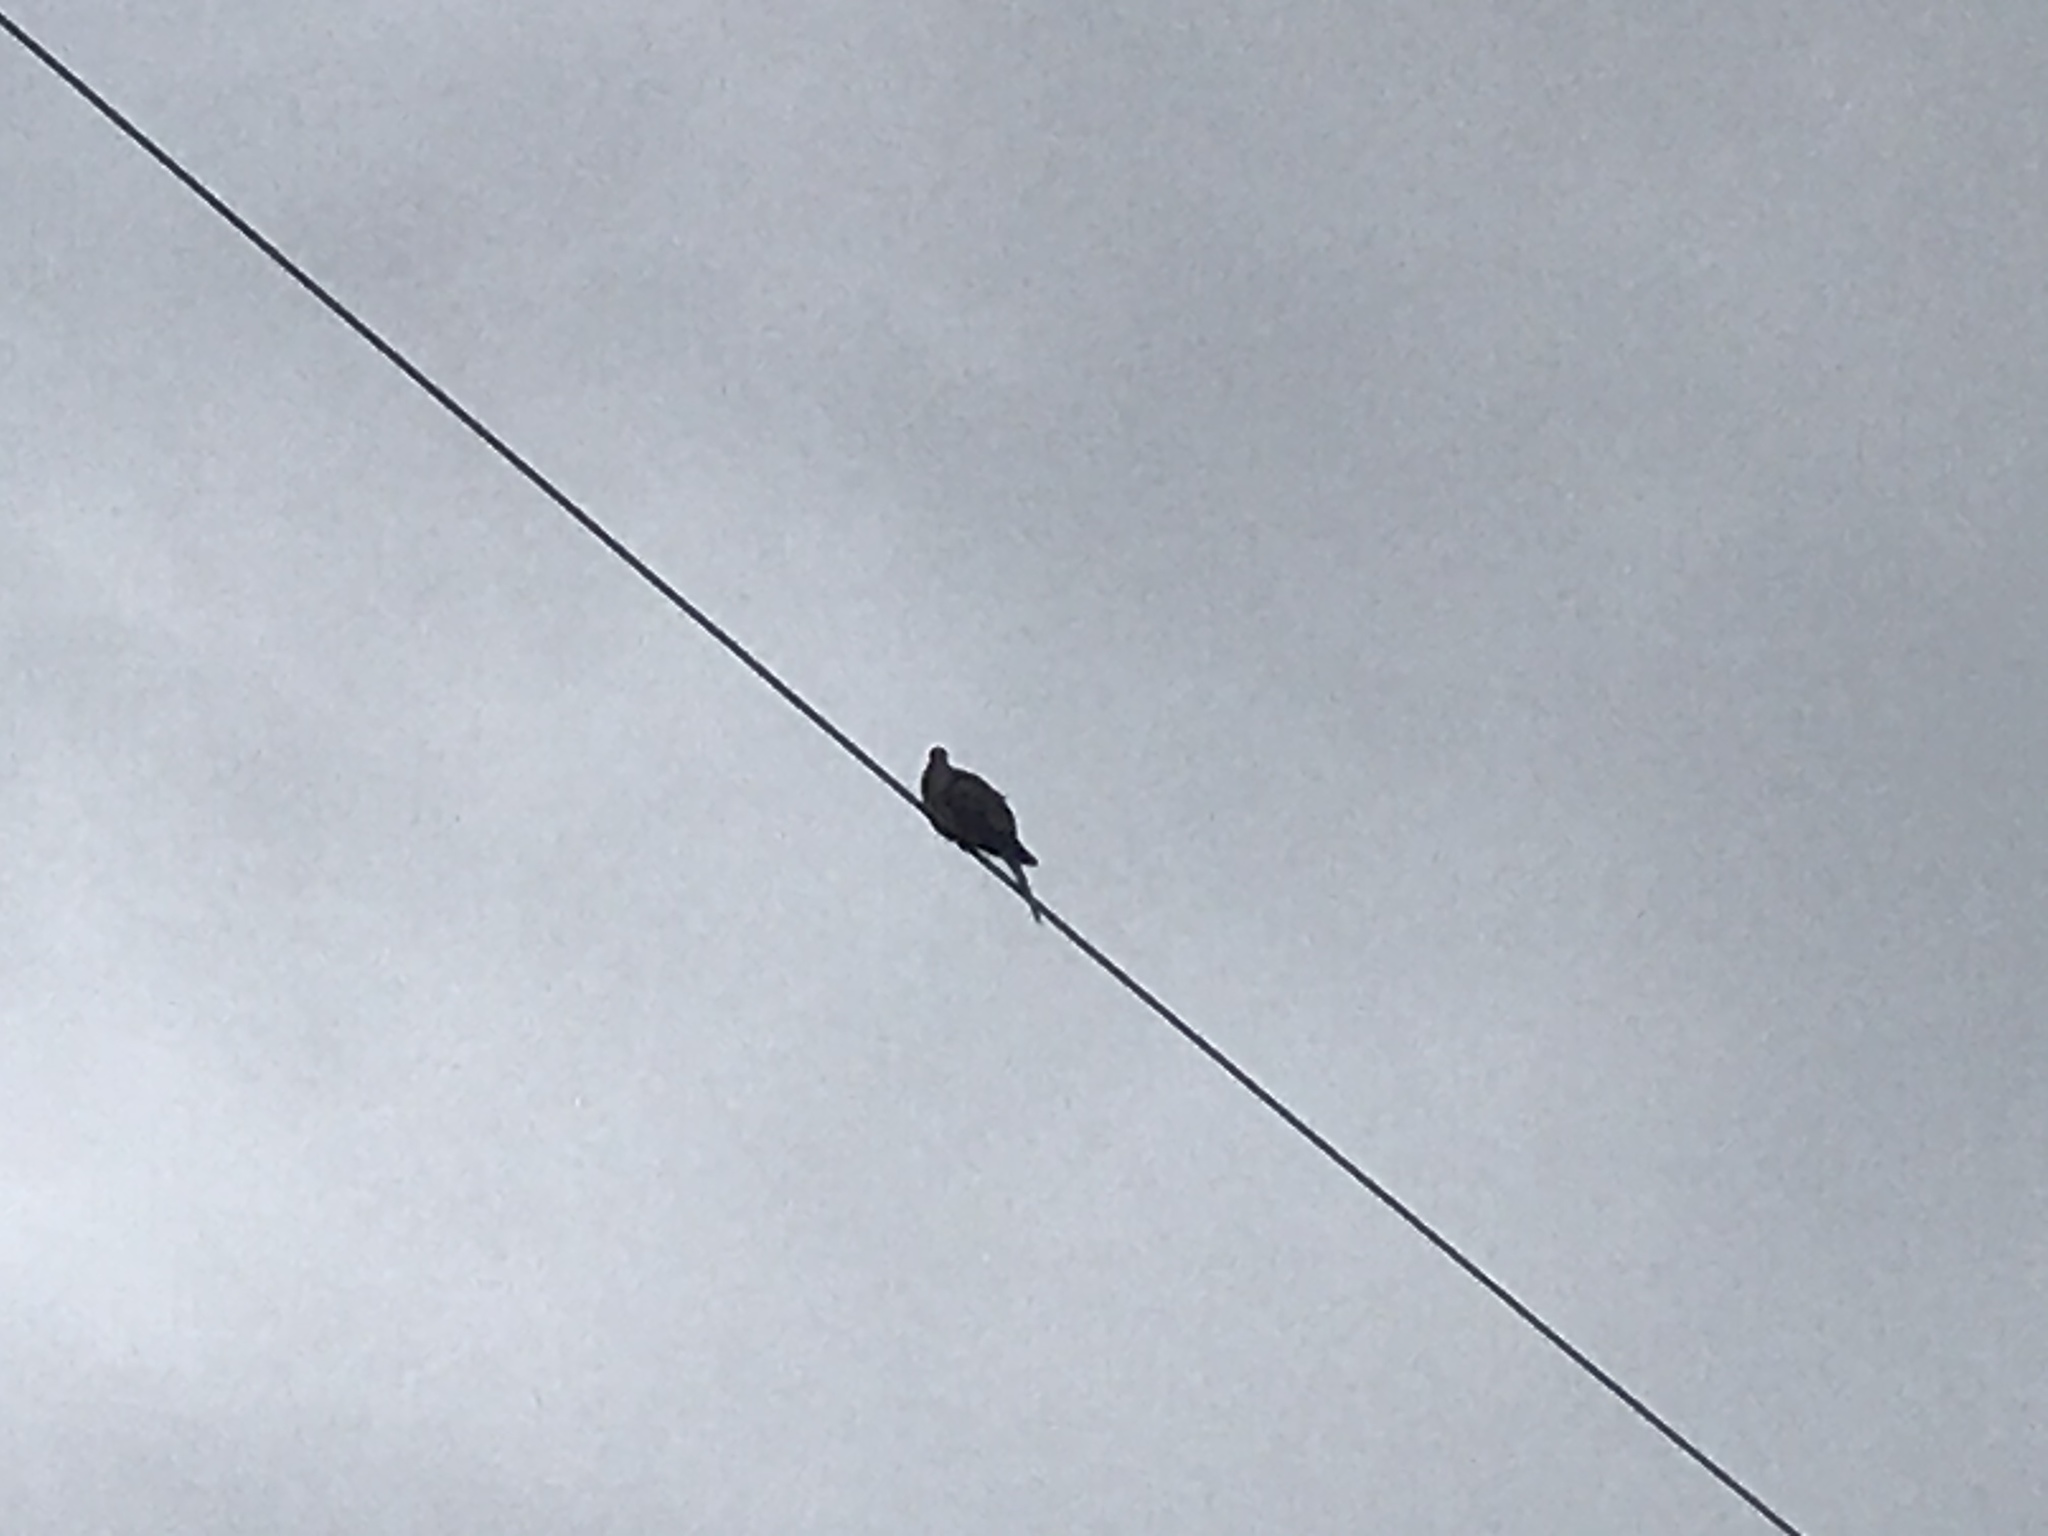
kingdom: Animalia
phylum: Chordata
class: Aves
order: Columbiformes
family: Columbidae
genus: Zenaida
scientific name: Zenaida macroura
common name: Mourning dove
